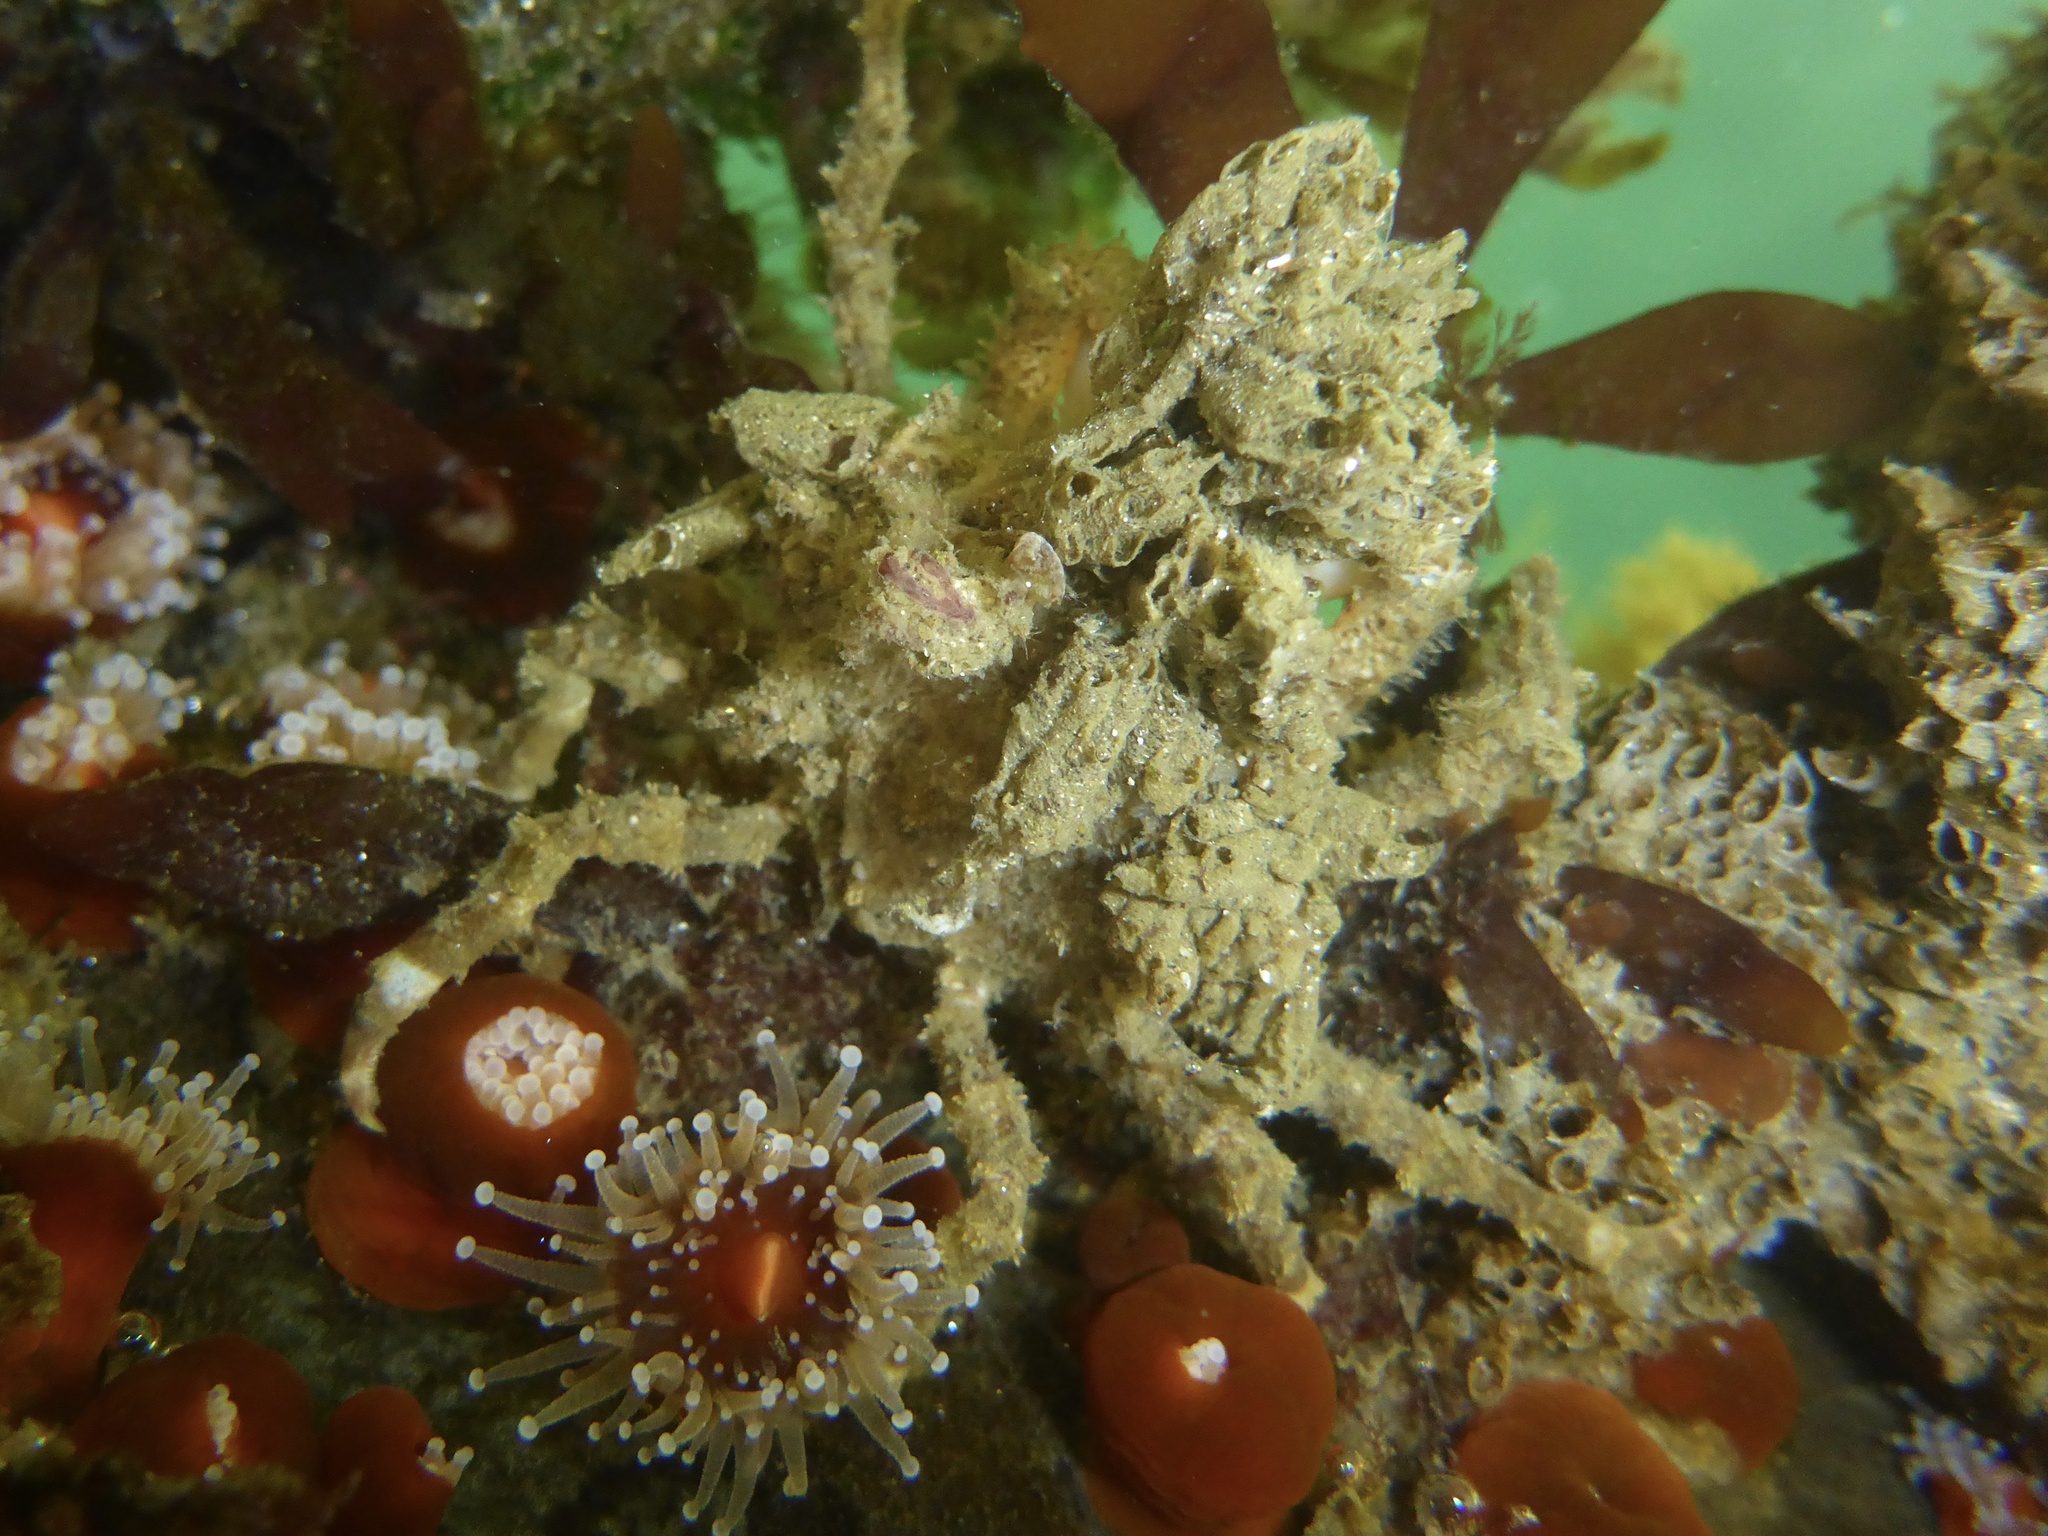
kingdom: Animalia
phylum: Arthropoda
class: Malacostraca
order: Decapoda
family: Epialtidae
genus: Pugettia
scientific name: Pugettia richii
